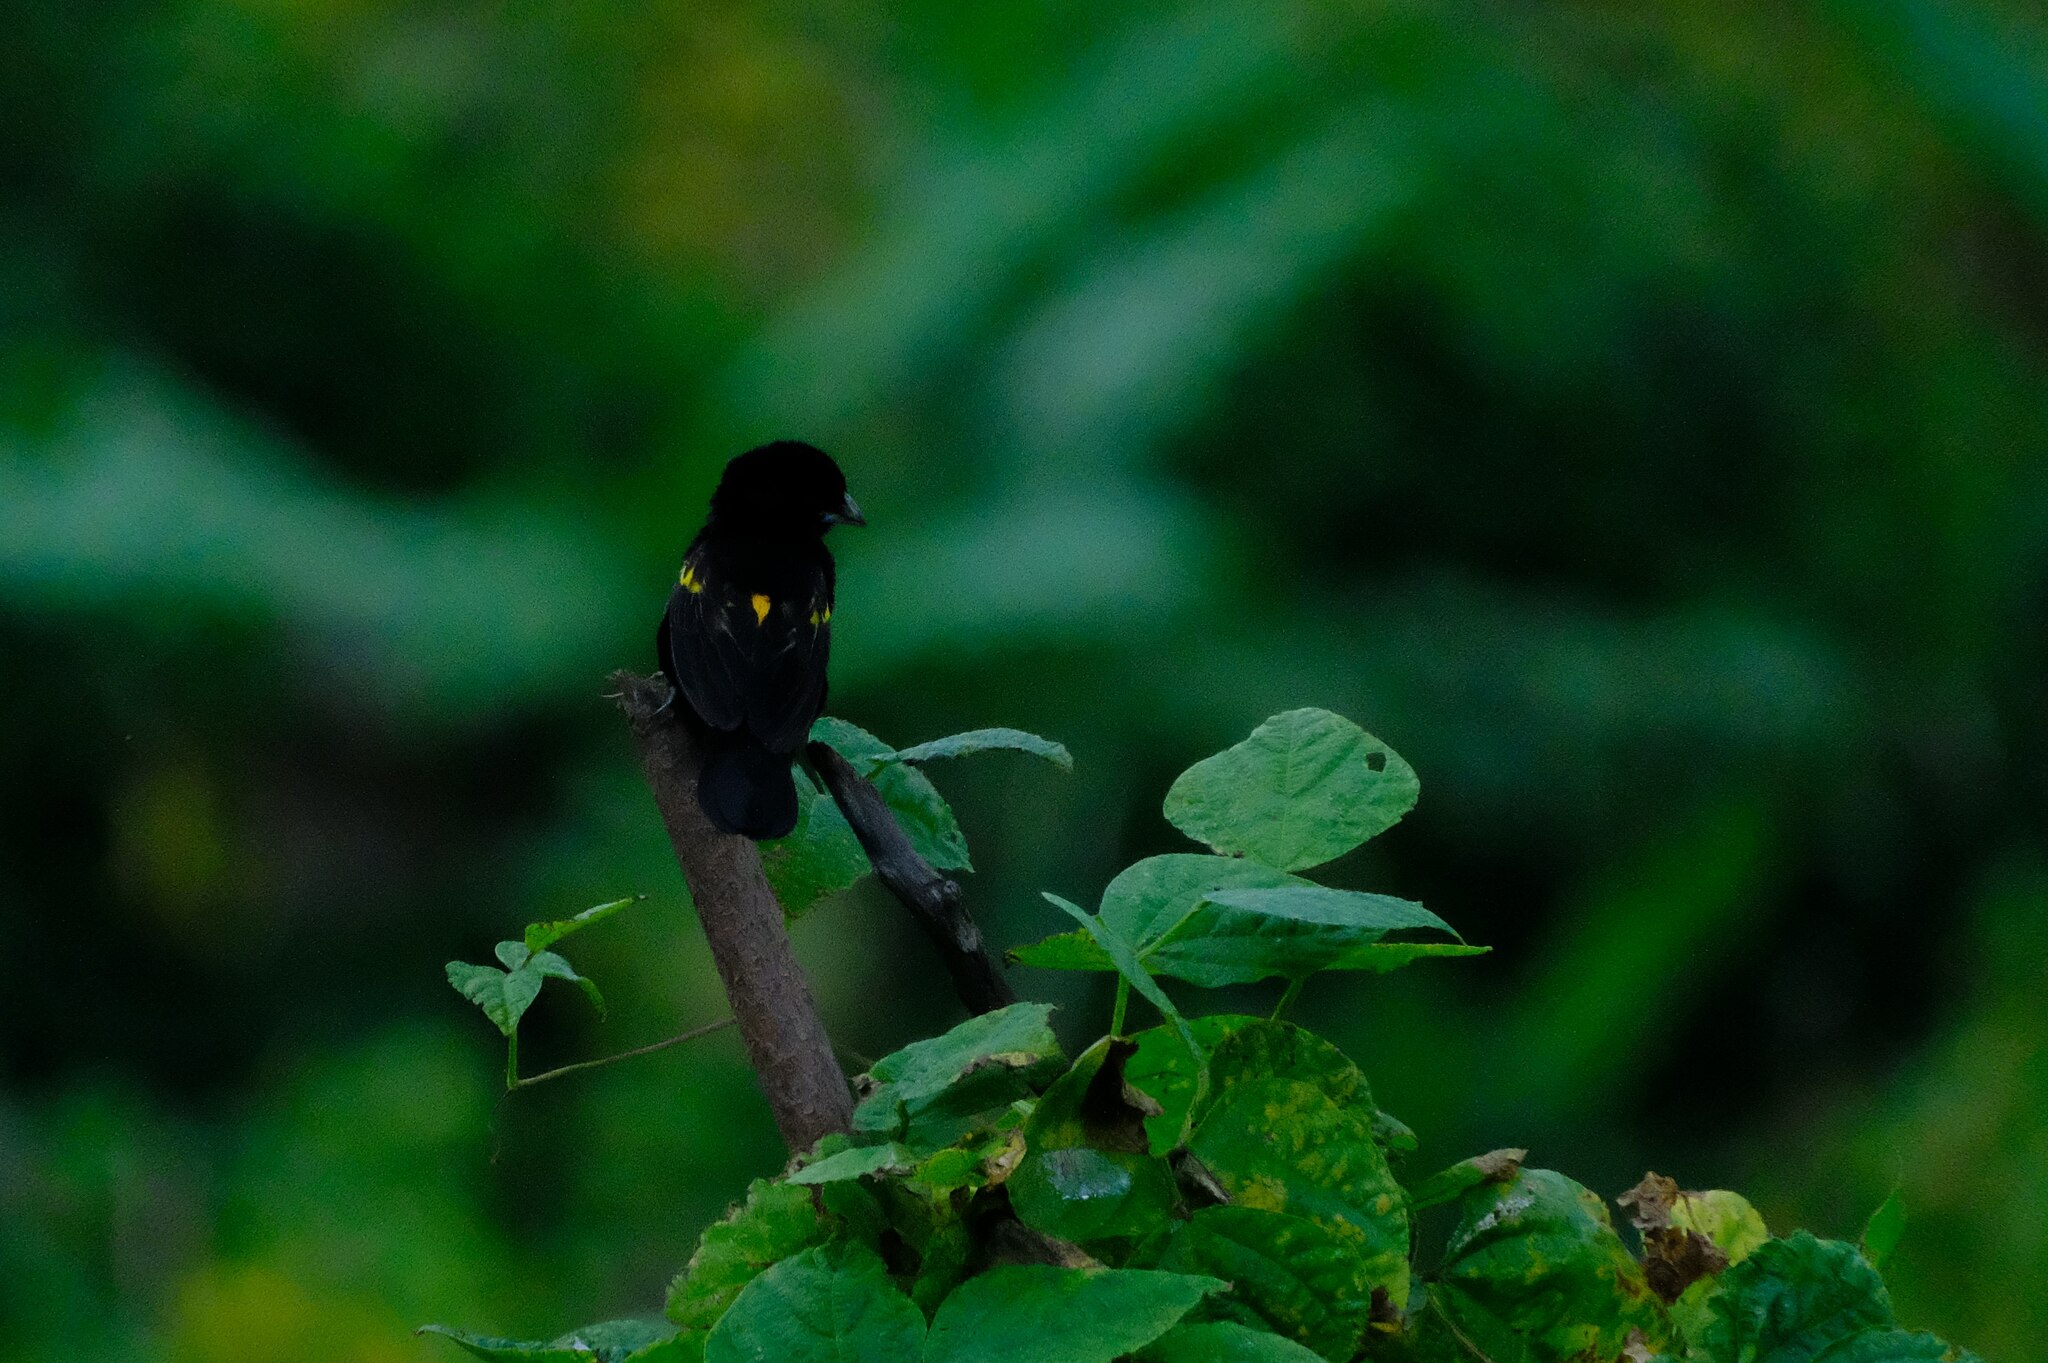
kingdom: Animalia
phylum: Chordata
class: Aves
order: Passeriformes
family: Ploceidae
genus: Euplectes
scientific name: Euplectes capensis
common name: Yellow bishop
